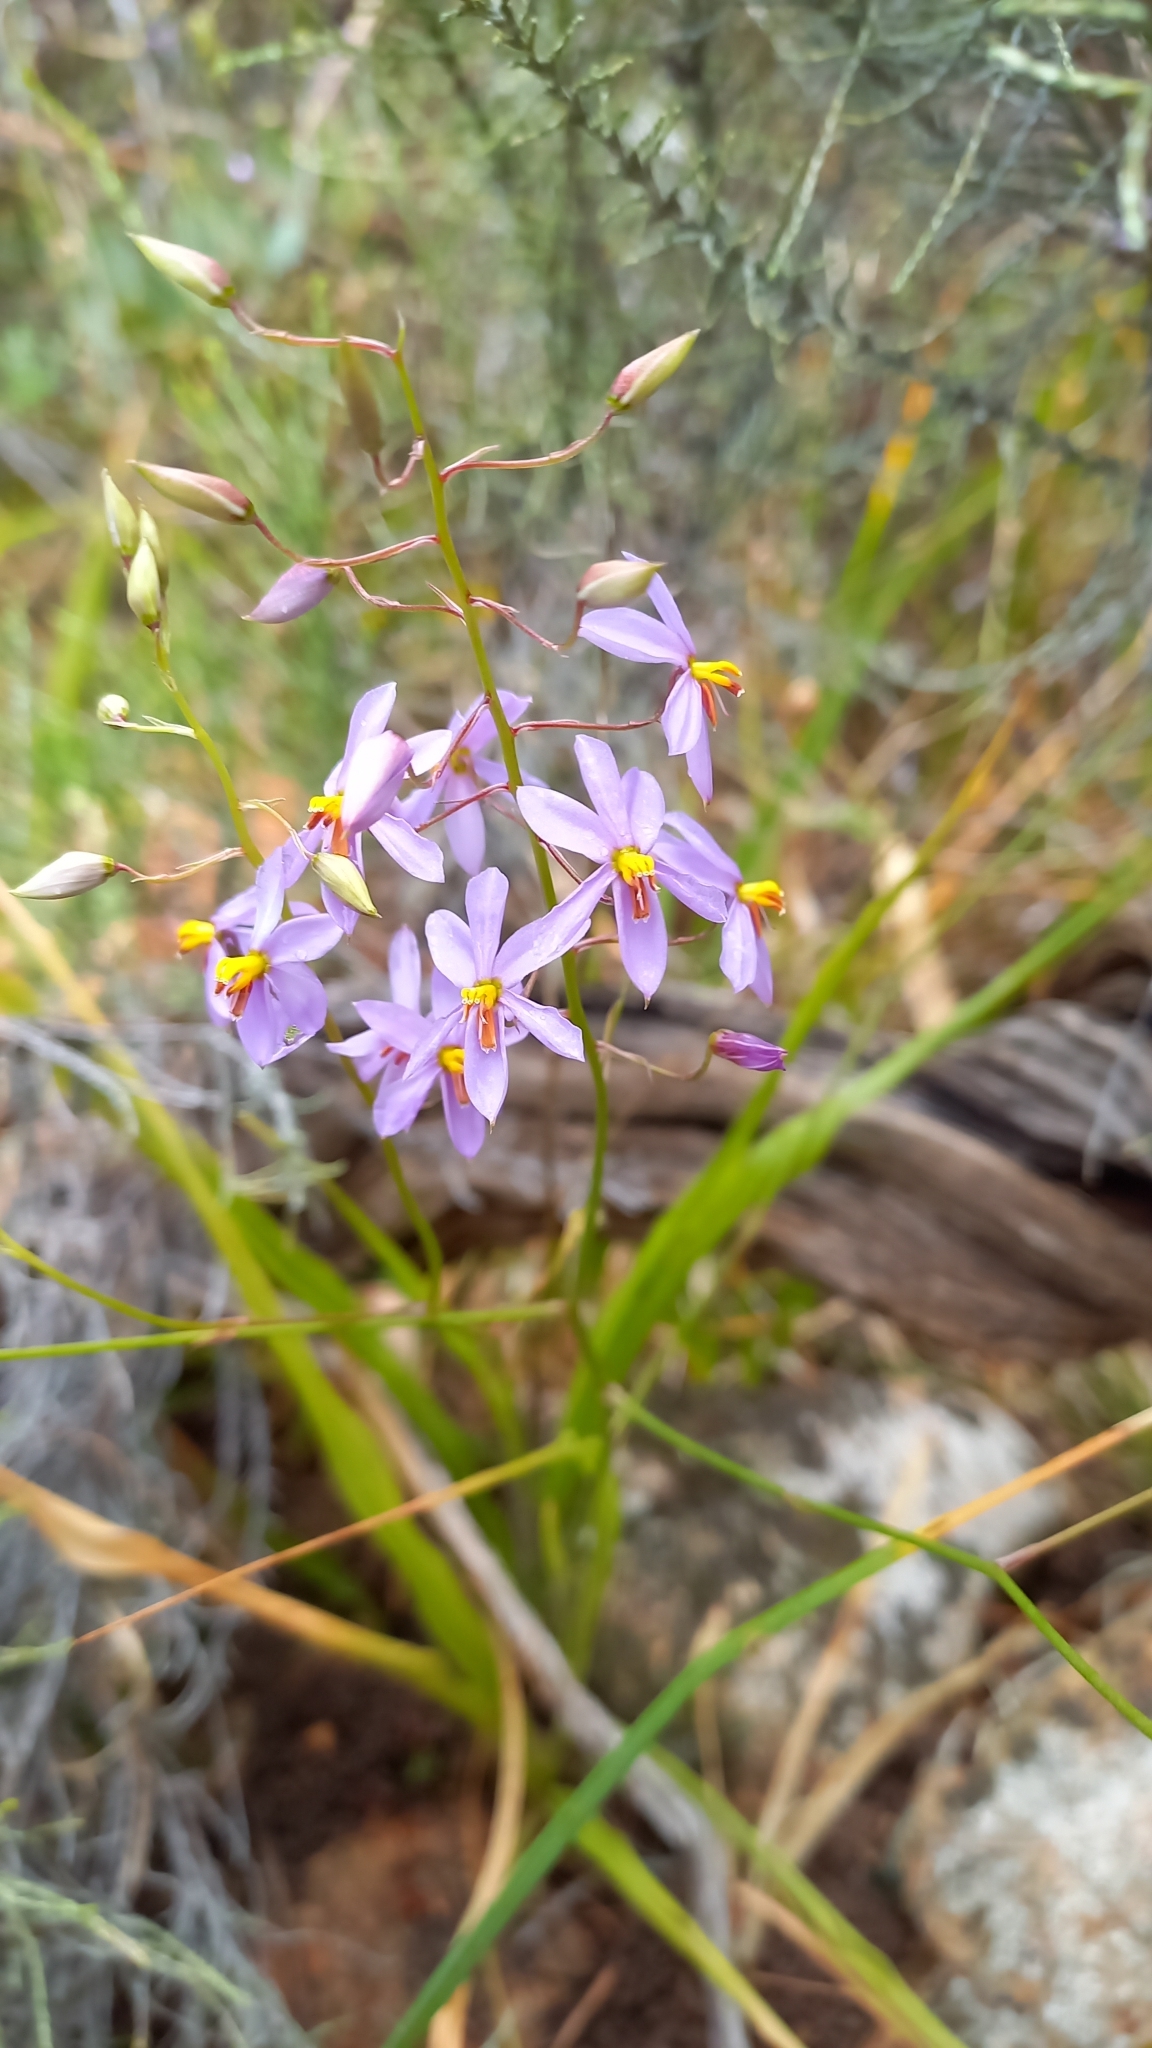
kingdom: Plantae
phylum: Tracheophyta
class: Liliopsida
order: Asparagales
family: Tecophilaeaceae
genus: Cyanella
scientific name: Cyanella hyacinthoides
